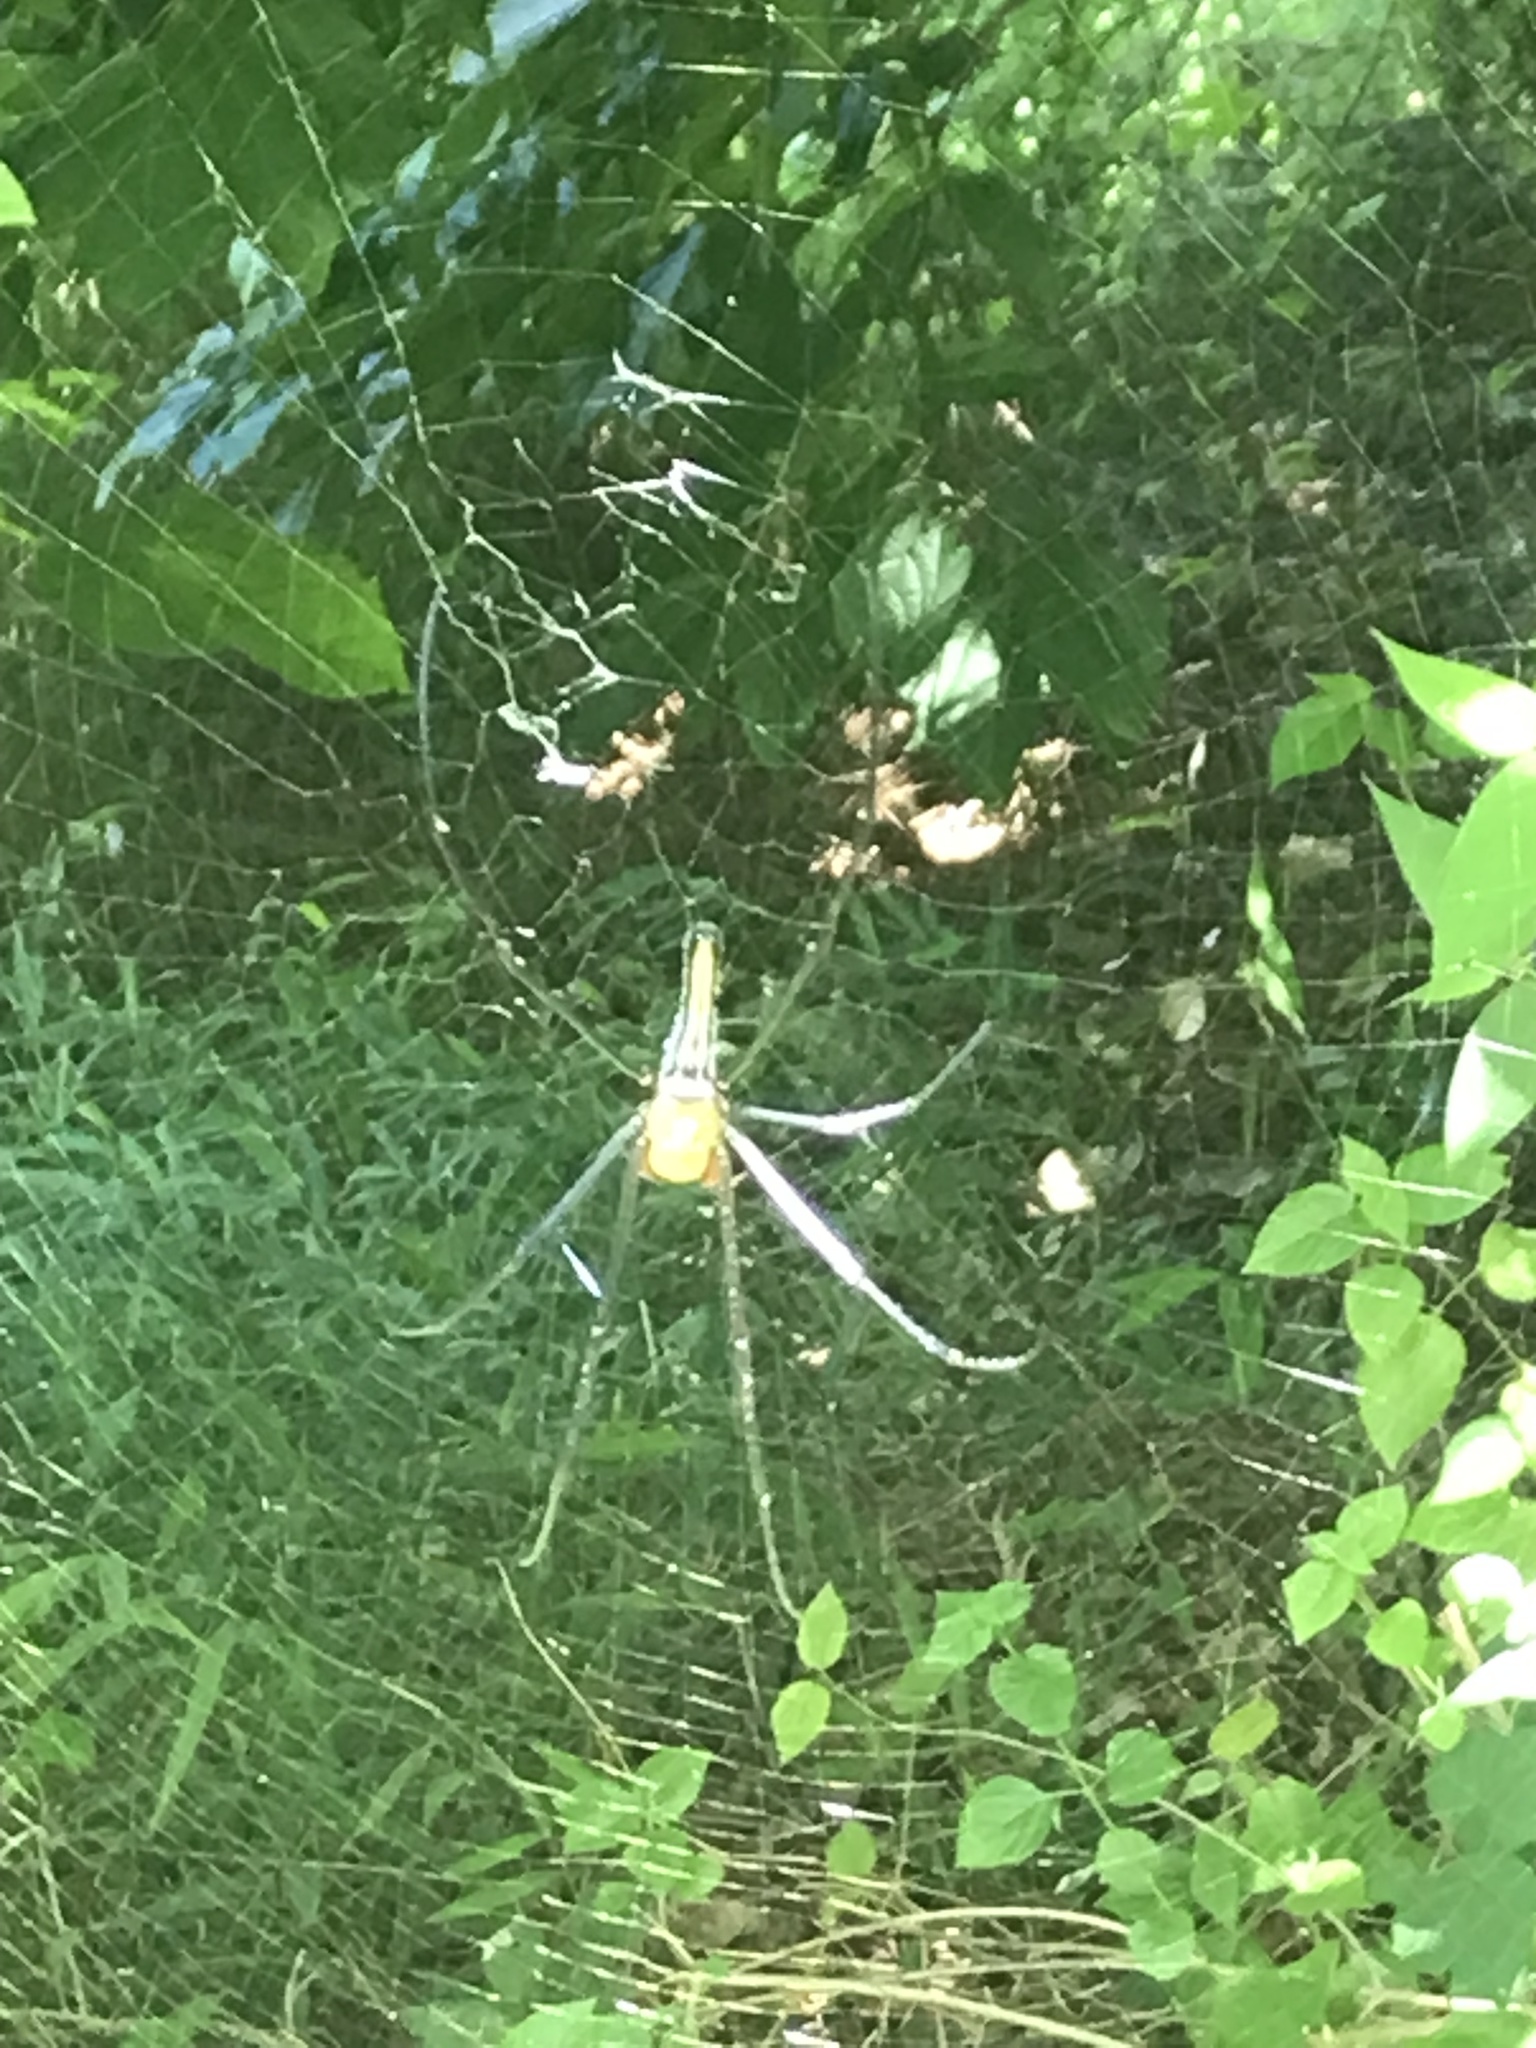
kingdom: Animalia
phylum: Arthropoda
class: Arachnida
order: Araneae
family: Araneidae
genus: Nephila
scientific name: Nephila pilipes
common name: Giant golden orb weaver
